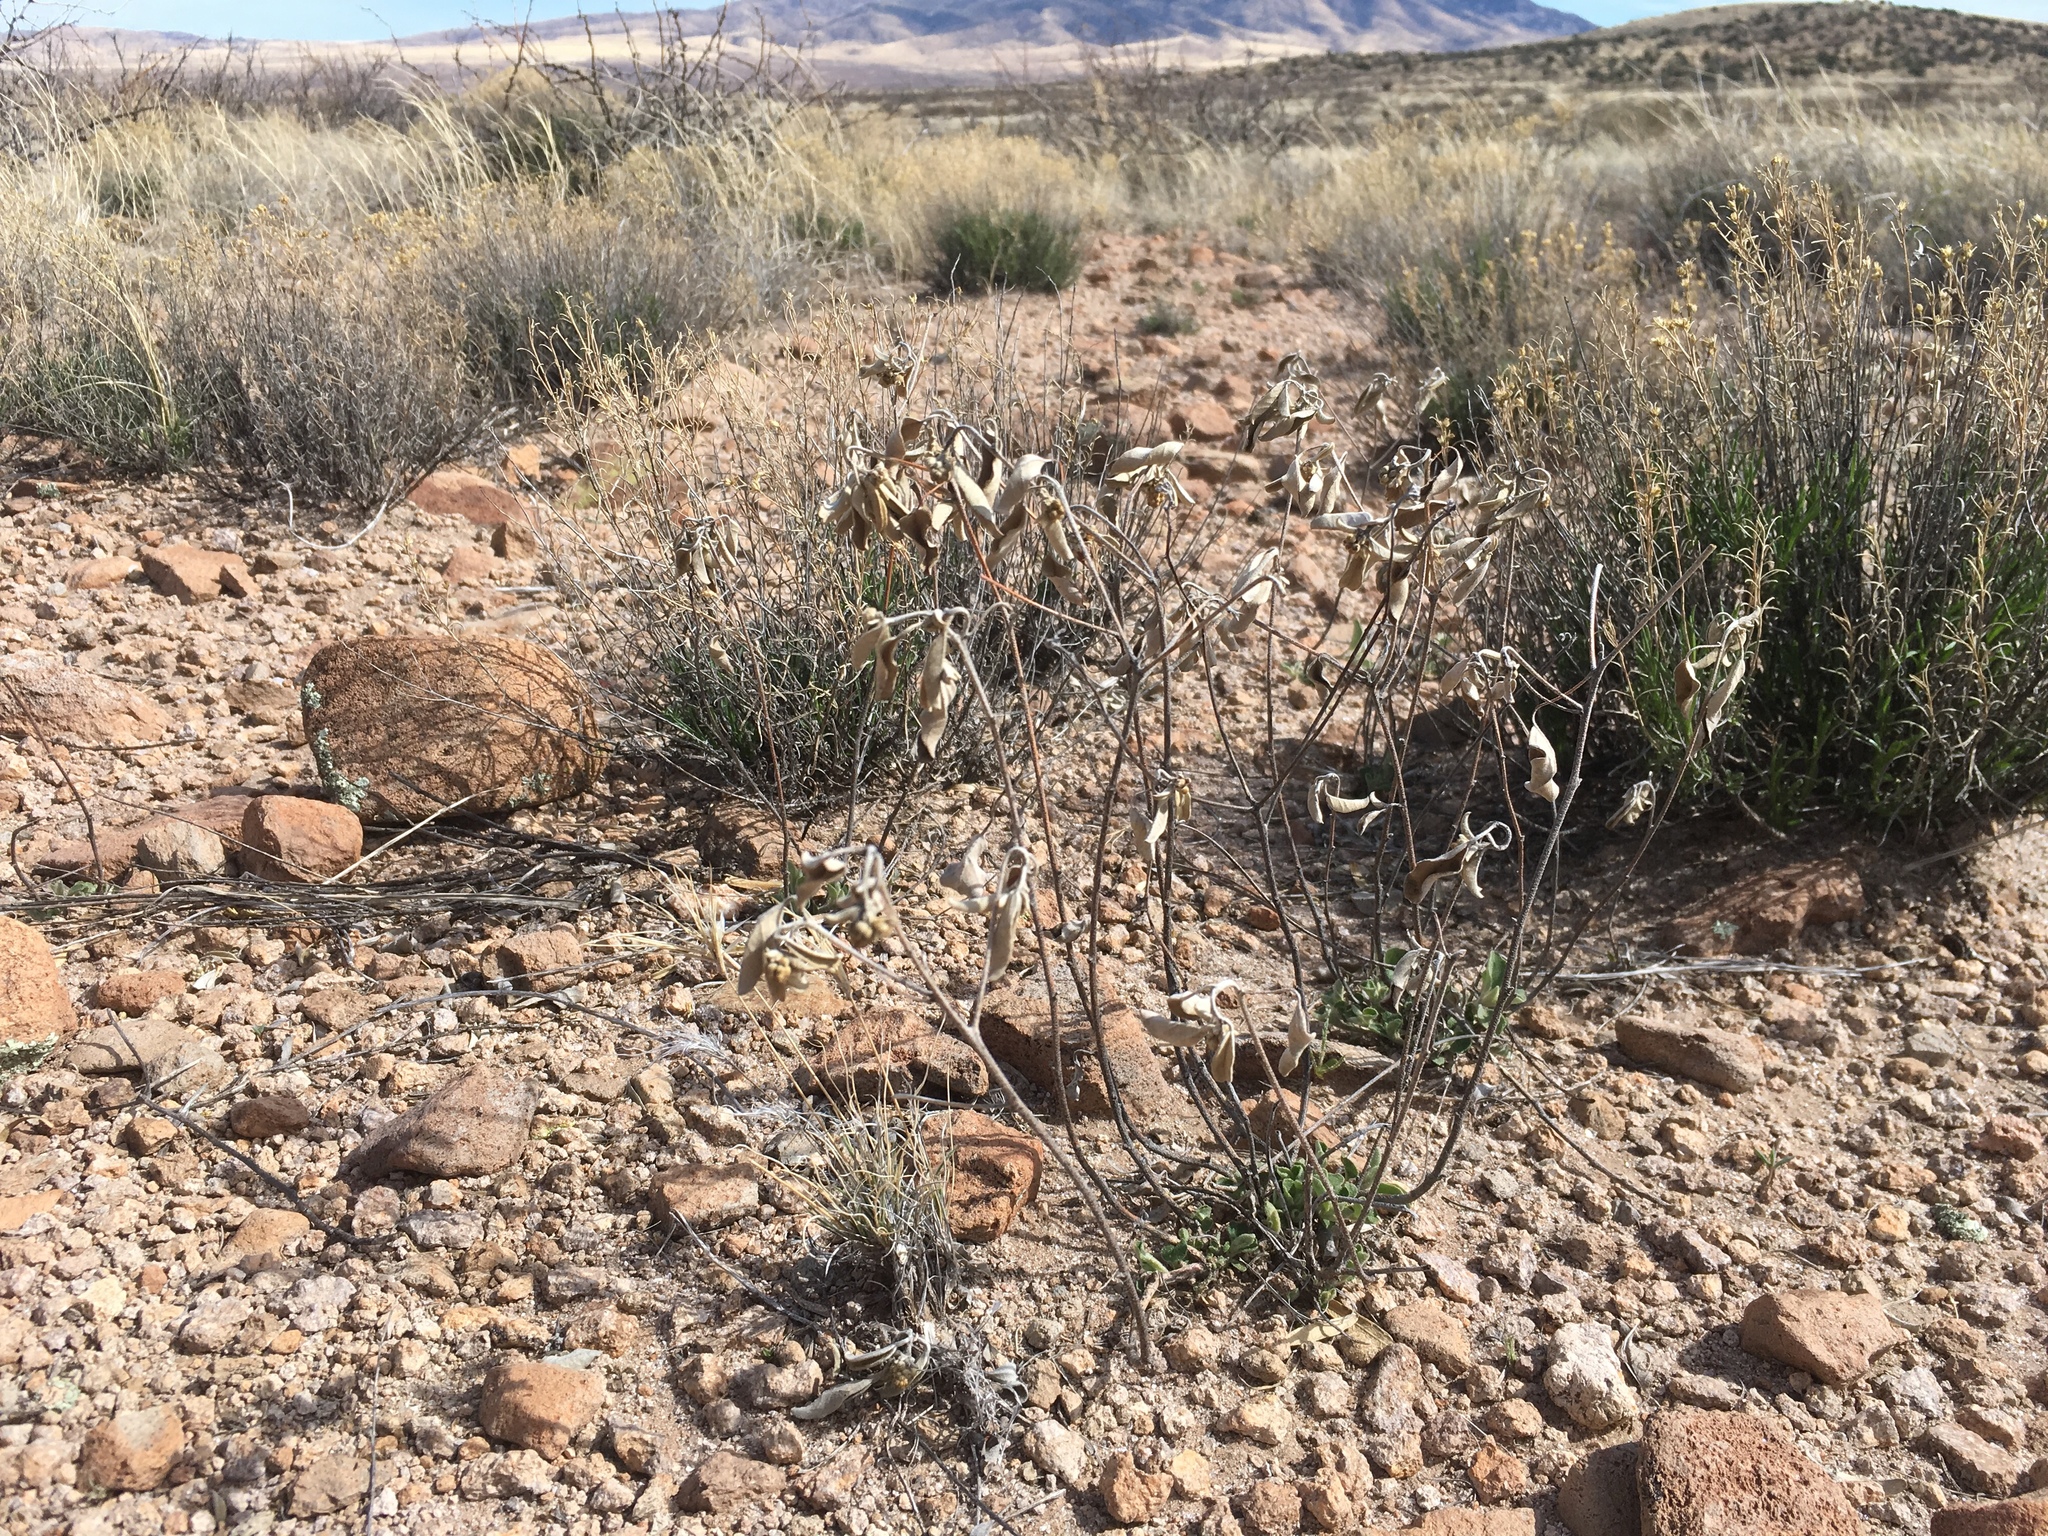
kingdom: Plantae
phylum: Tracheophyta
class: Magnoliopsida
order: Malpighiales
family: Euphorbiaceae
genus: Croton
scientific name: Croton pottsii
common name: Leatherweed
